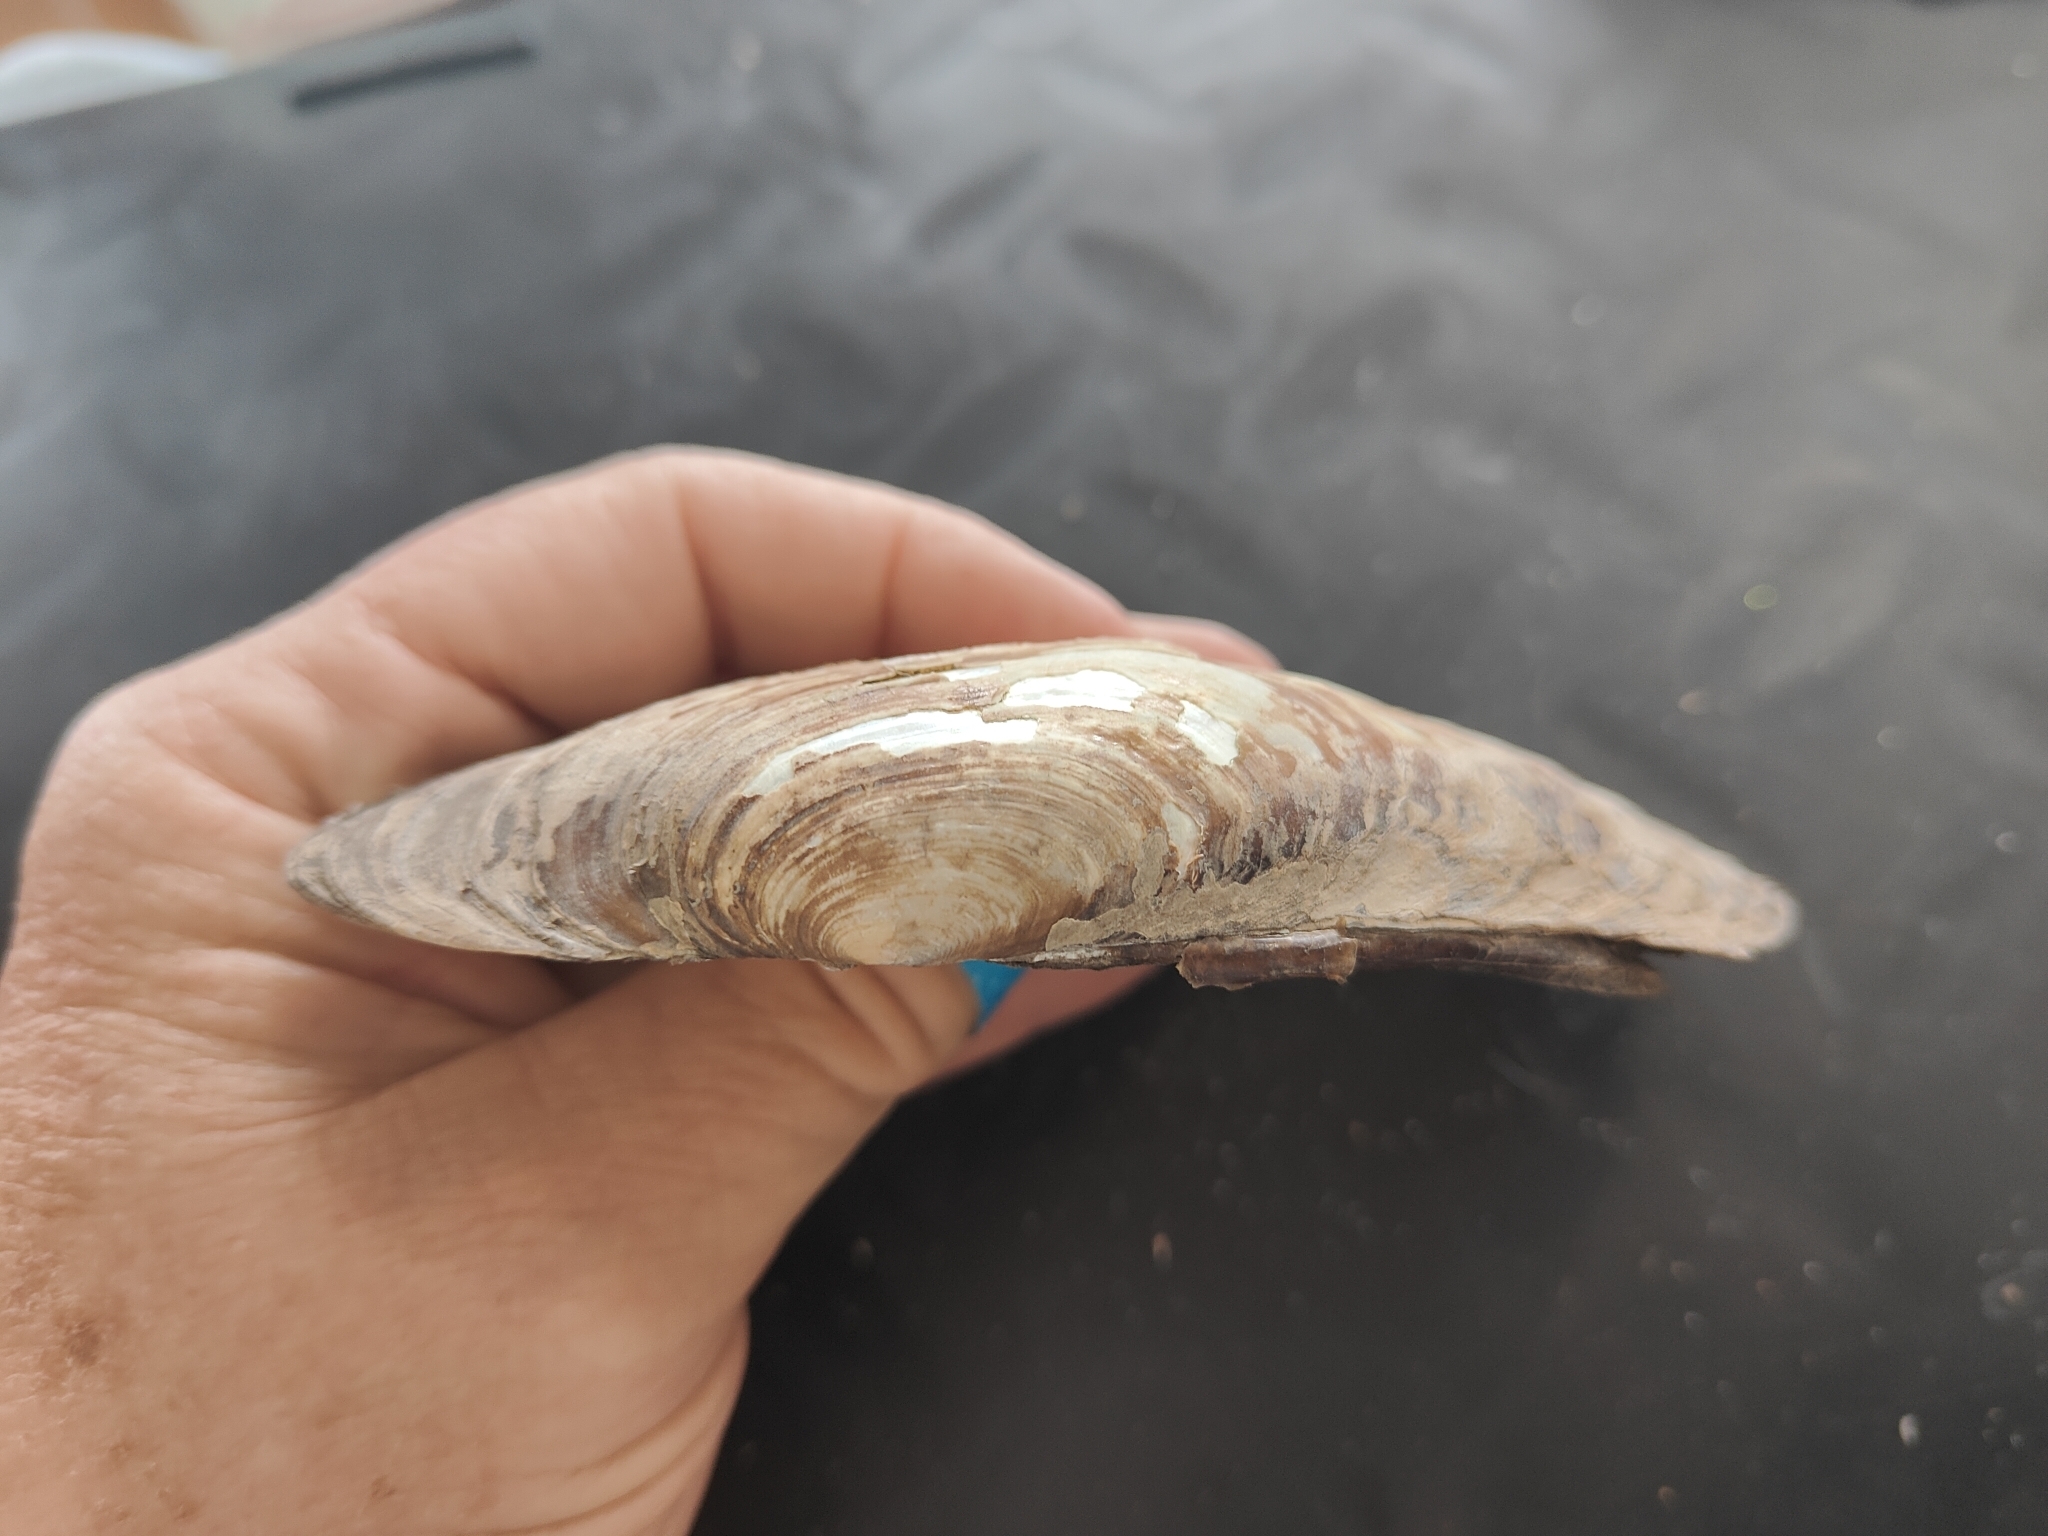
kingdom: Animalia
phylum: Mollusca
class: Bivalvia
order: Unionida
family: Unionidae
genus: Potamilus
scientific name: Potamilus fragilis
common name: Fragile papershell
